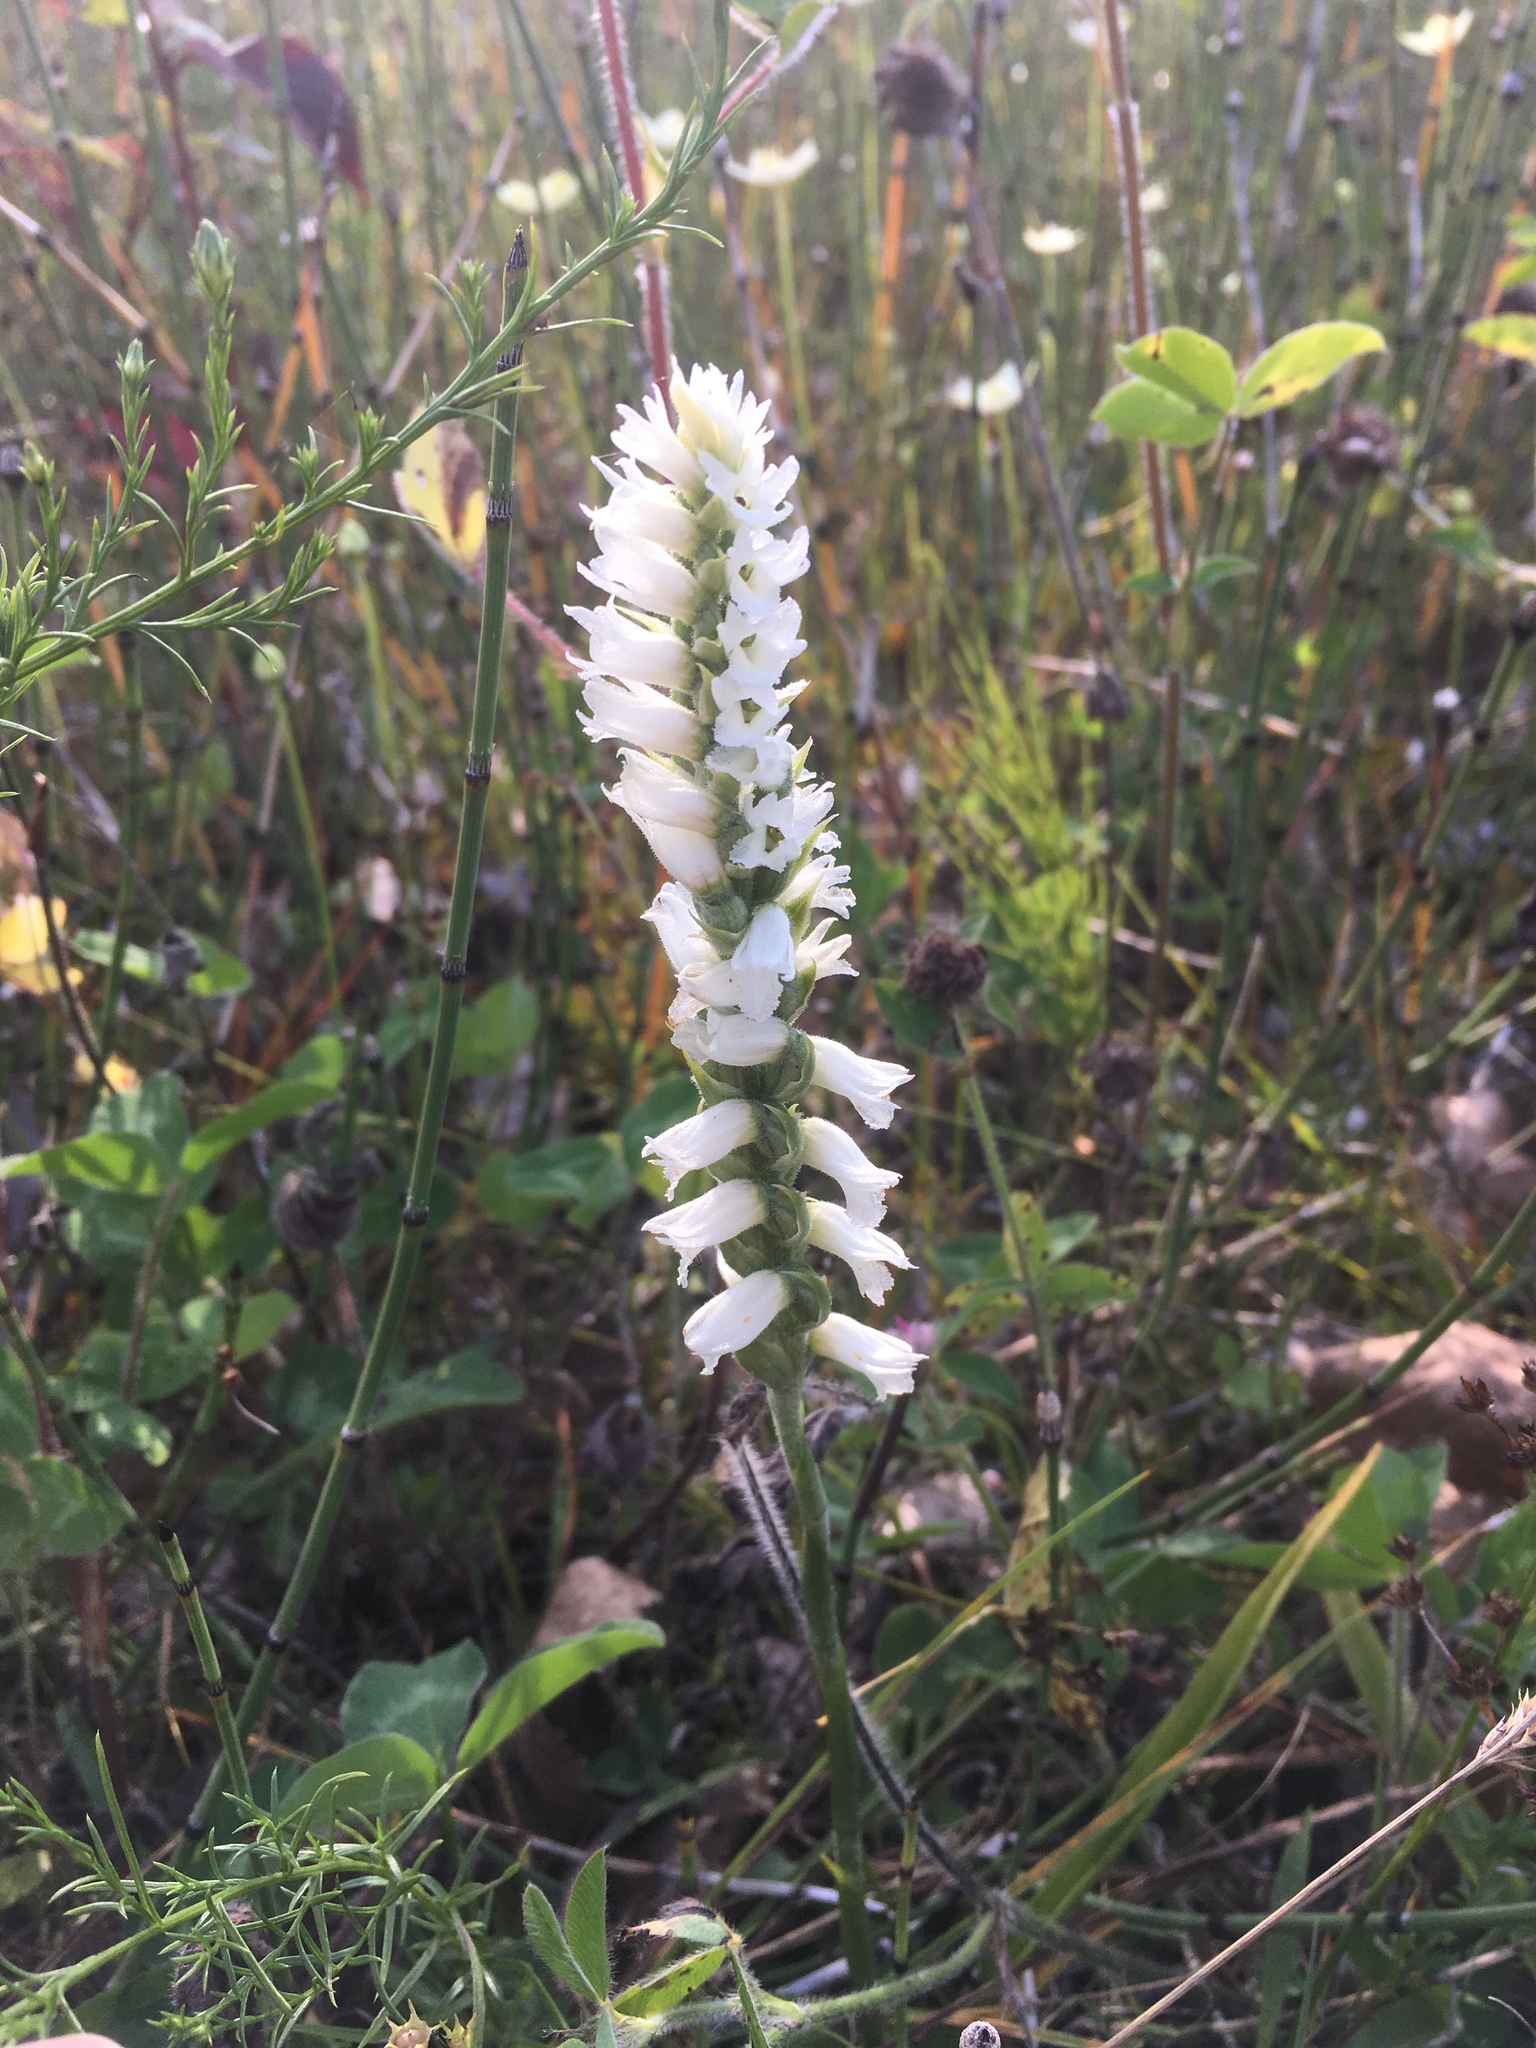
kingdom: Plantae
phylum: Tracheophyta
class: Liliopsida
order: Asparagales
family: Orchidaceae
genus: Spiranthes
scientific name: Spiranthes incurva
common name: Sphinx ladies'-tresses
